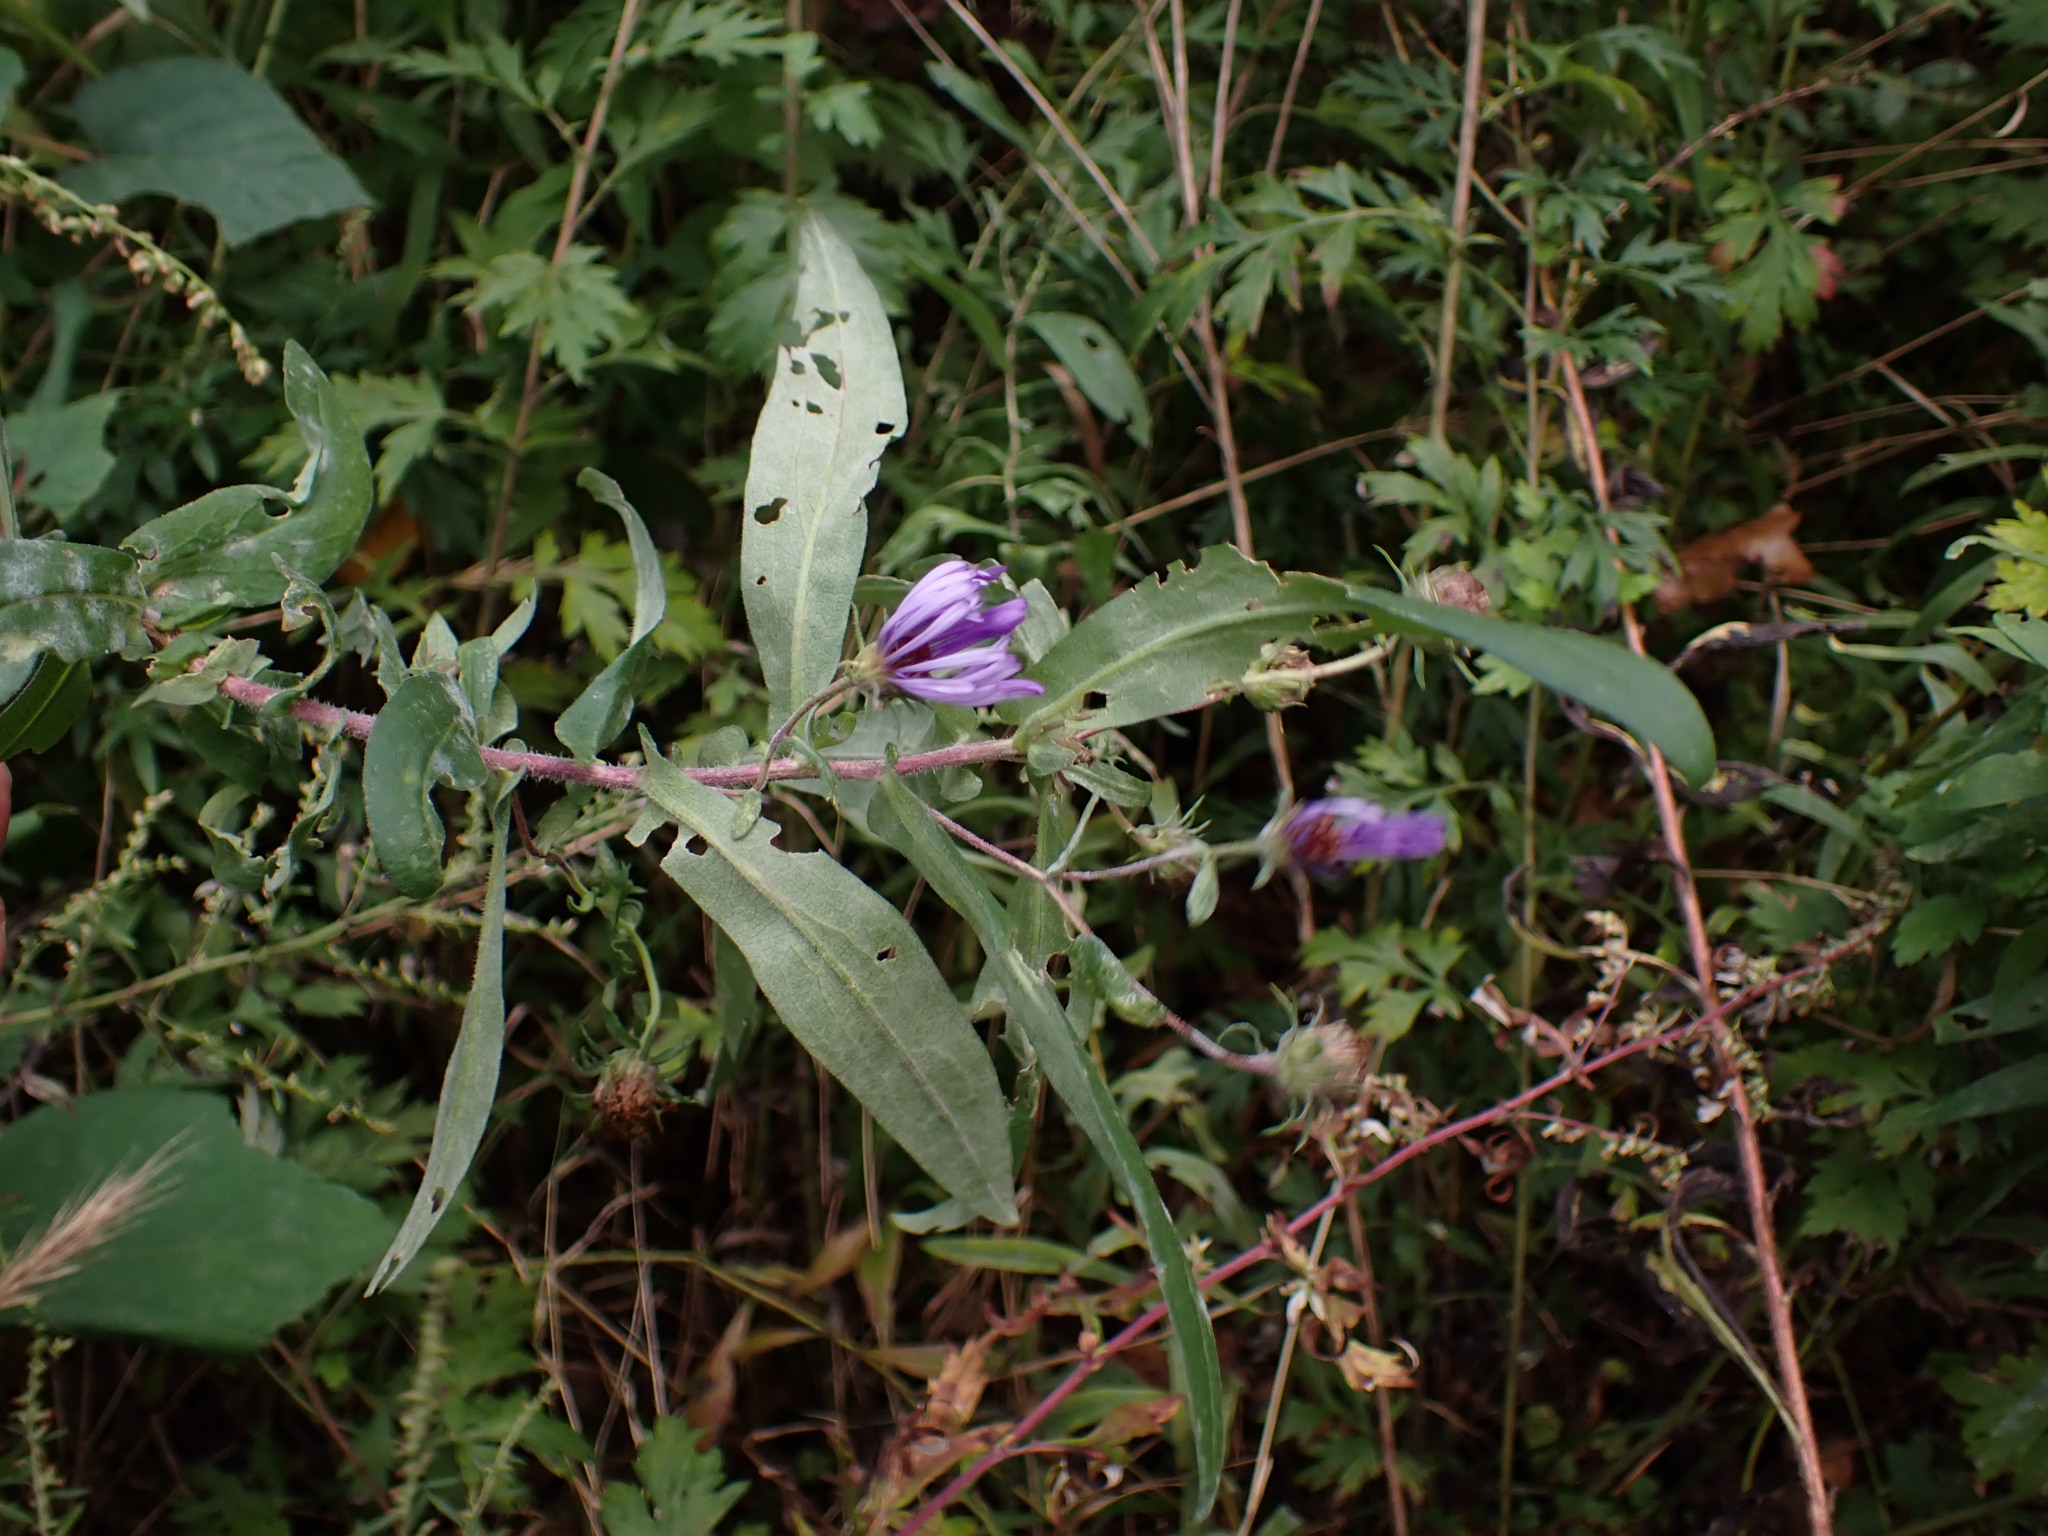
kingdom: Plantae
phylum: Tracheophyta
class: Magnoliopsida
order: Asterales
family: Asteraceae
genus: Symphyotrichum
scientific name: Symphyotrichum novae-angliae
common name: Michaelmas daisy
